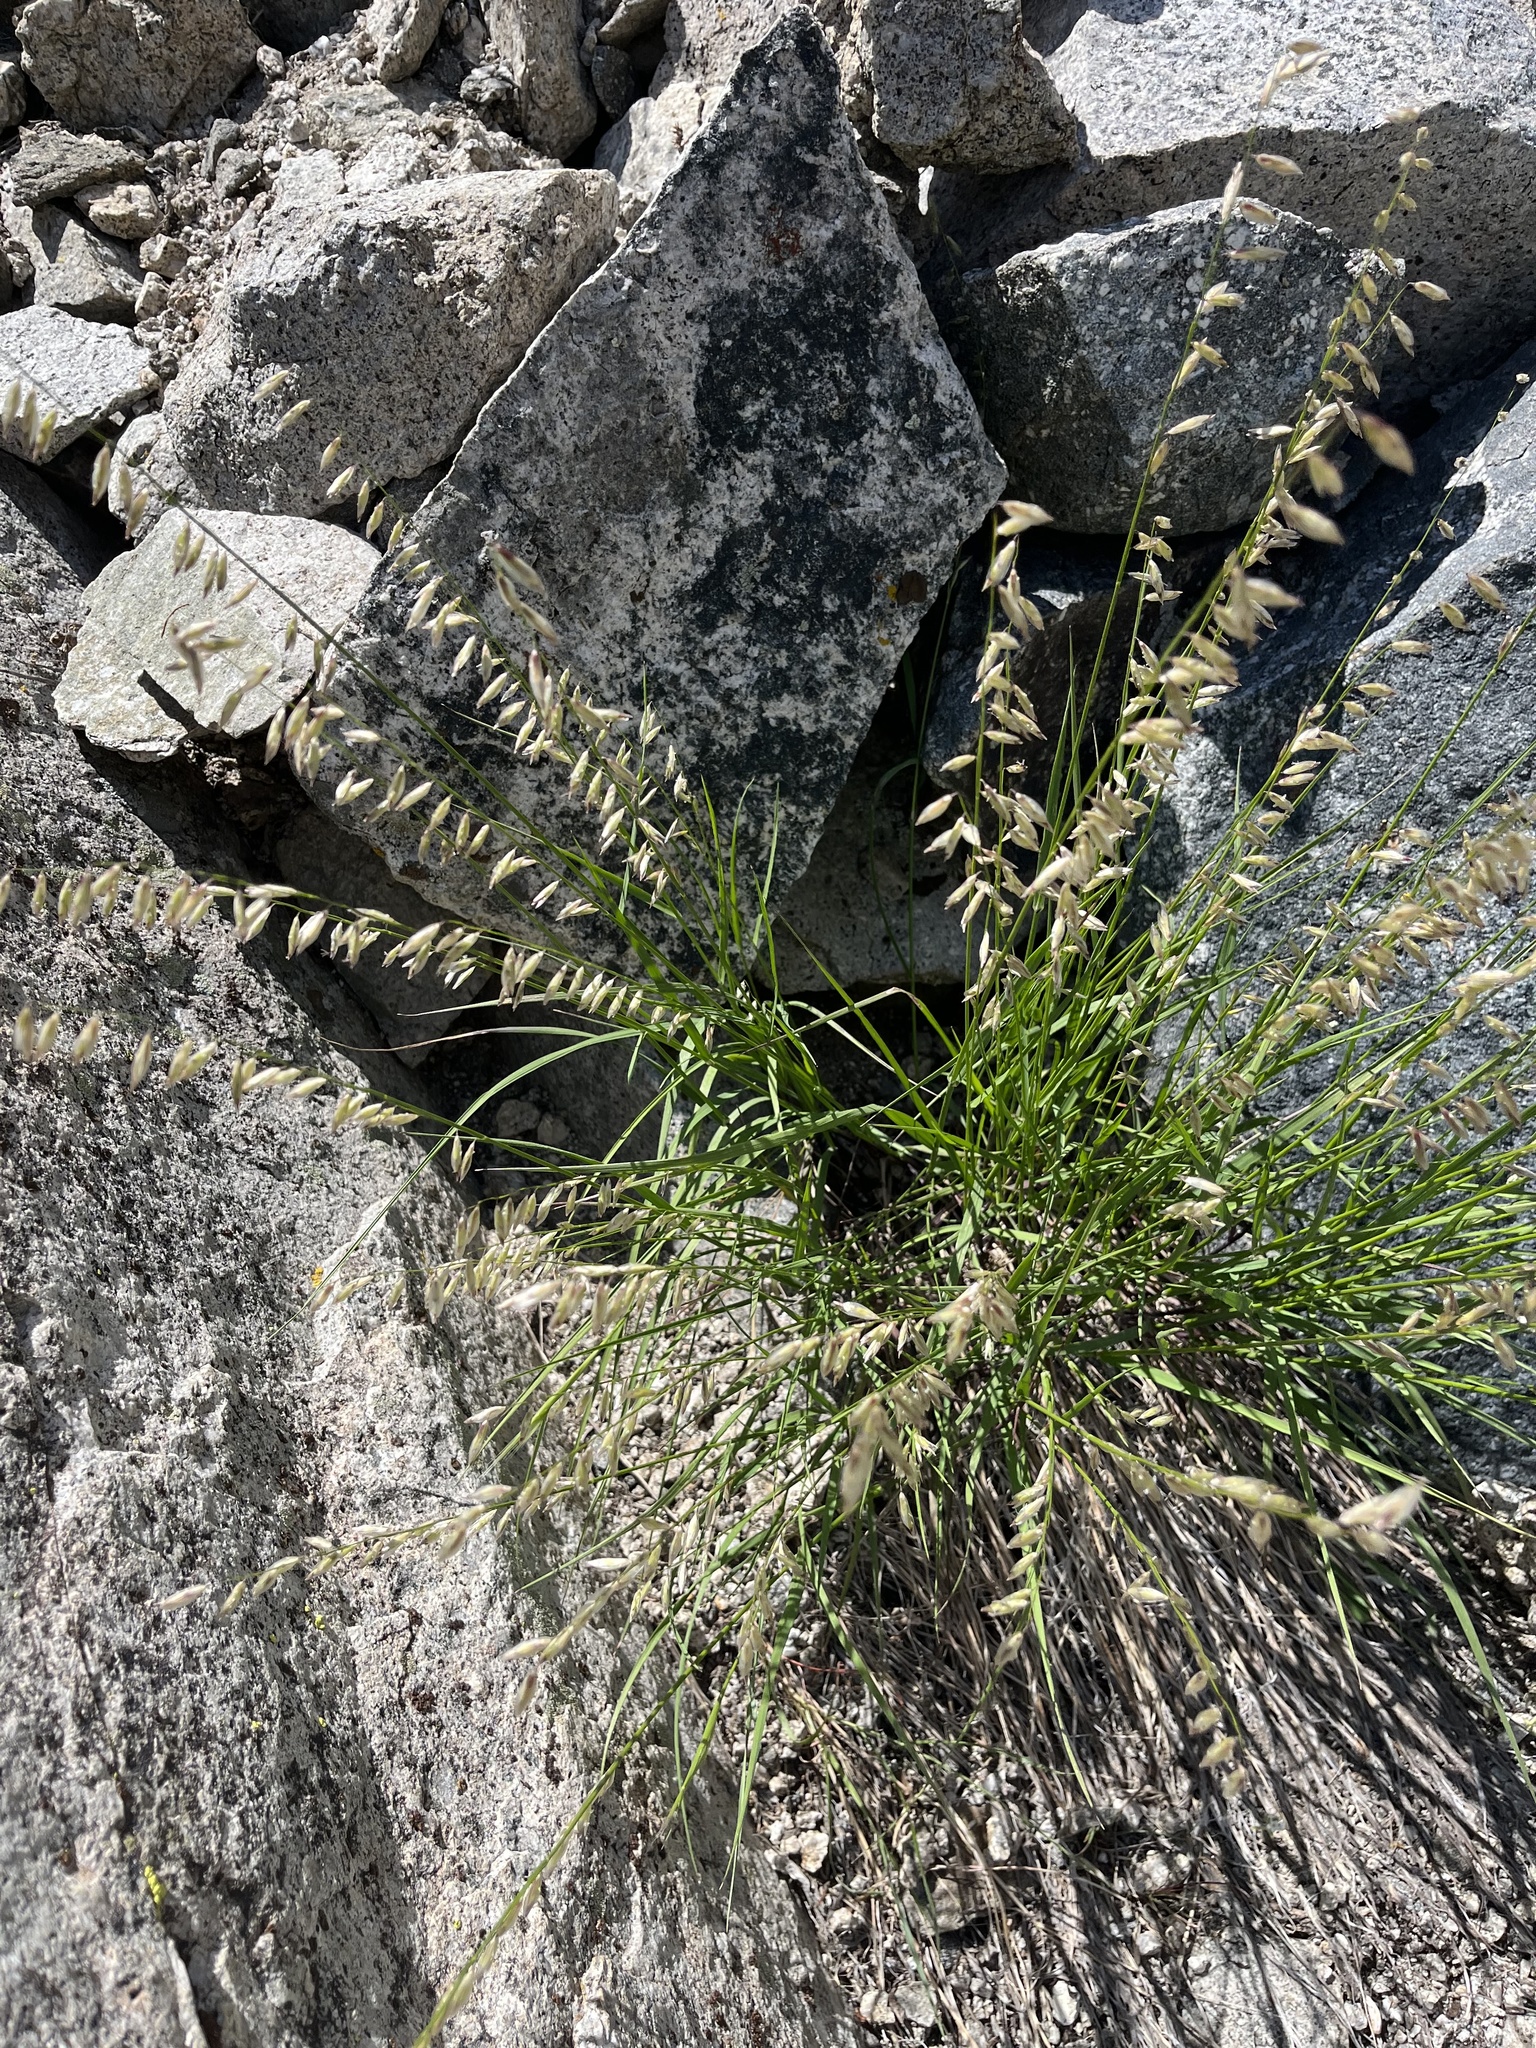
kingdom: Plantae
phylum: Tracheophyta
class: Liliopsida
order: Poales
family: Poaceae
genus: Melica
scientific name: Melica stricta
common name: Rock melic
